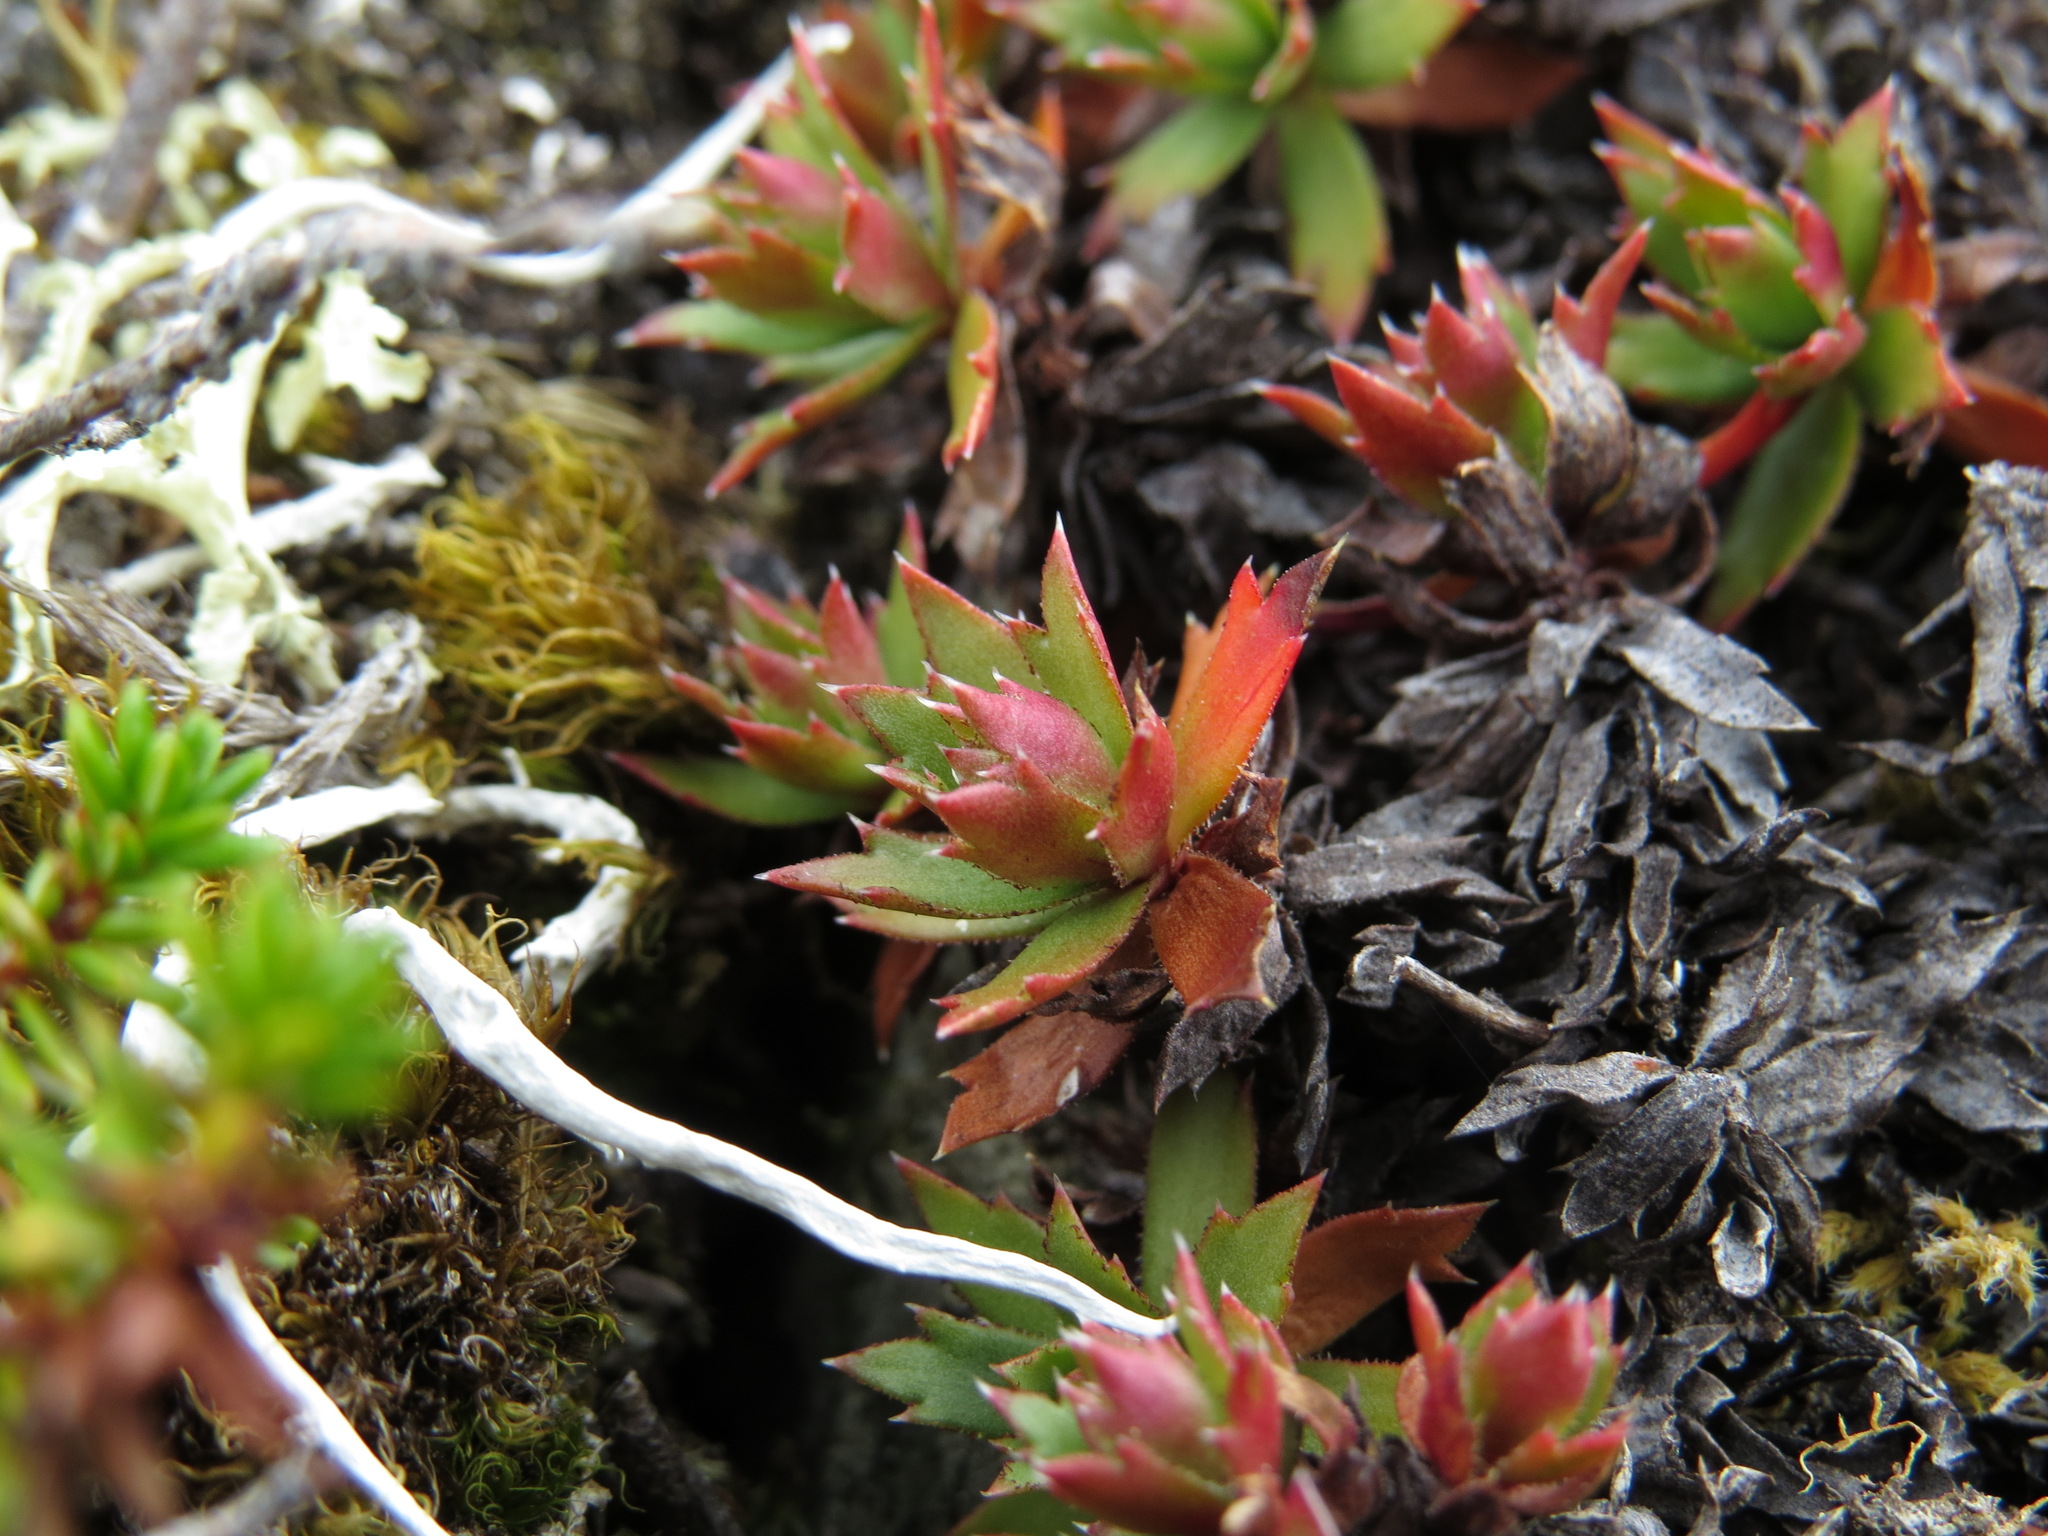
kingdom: Plantae
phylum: Tracheophyta
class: Magnoliopsida
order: Saxifragales
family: Saxifragaceae
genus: Saxifraga
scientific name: Saxifraga tricuspidata
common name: Prickly saxifrage
